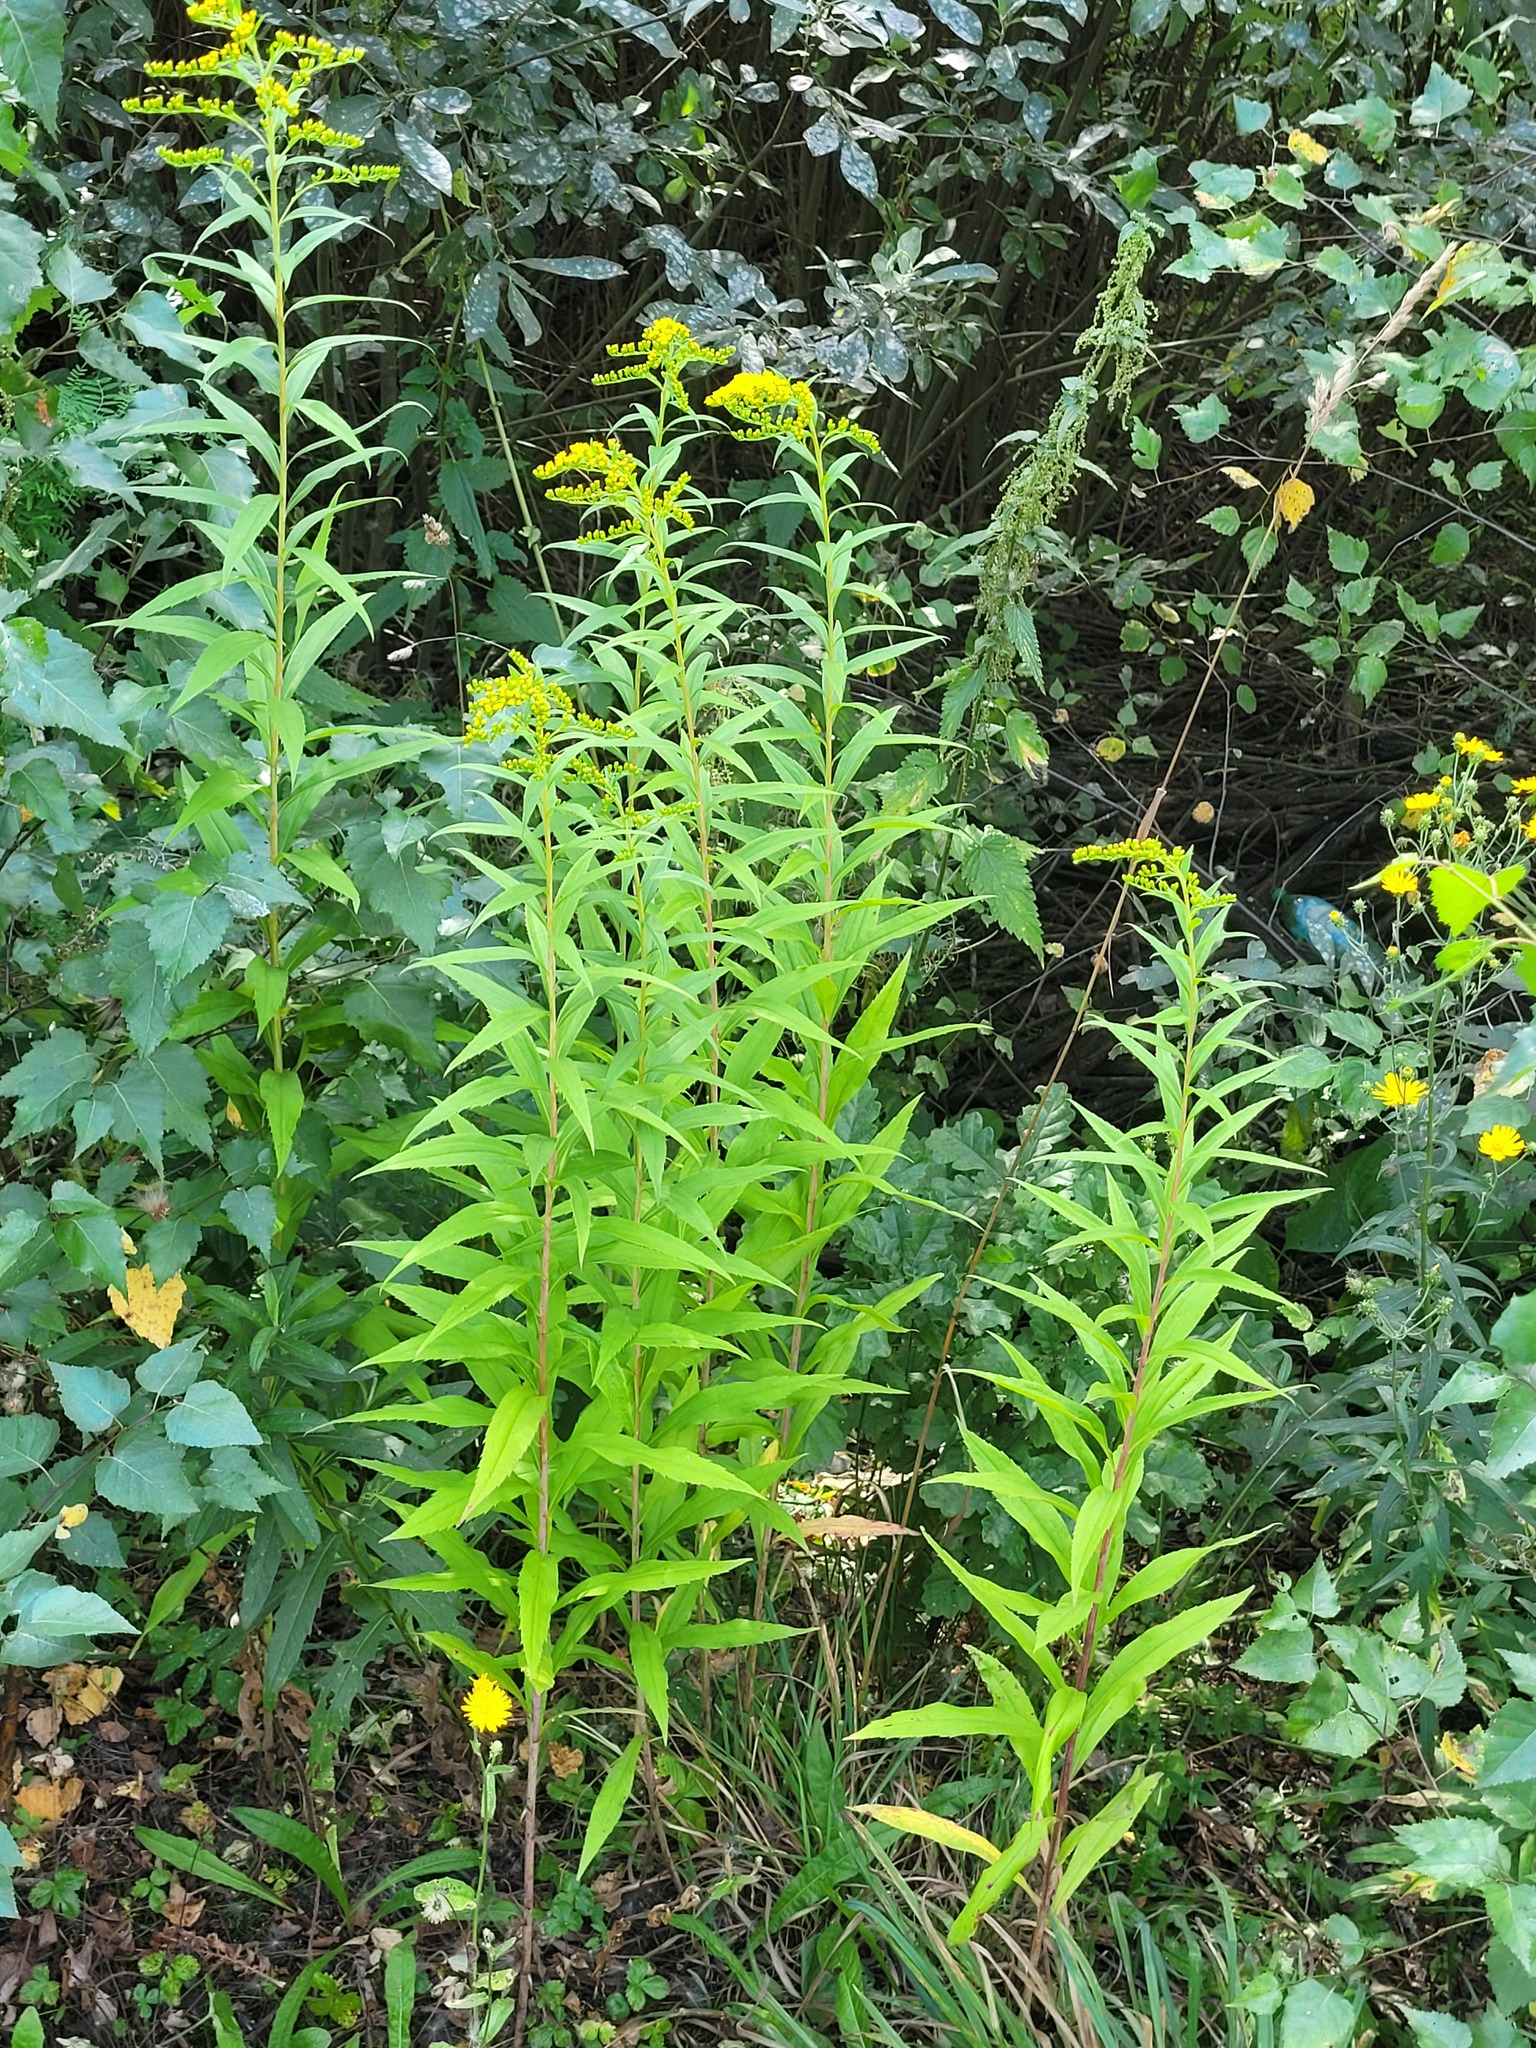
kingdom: Plantae
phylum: Tracheophyta
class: Magnoliopsida
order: Asterales
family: Asteraceae
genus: Solidago
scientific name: Solidago gigantea
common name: Giant goldenrod
